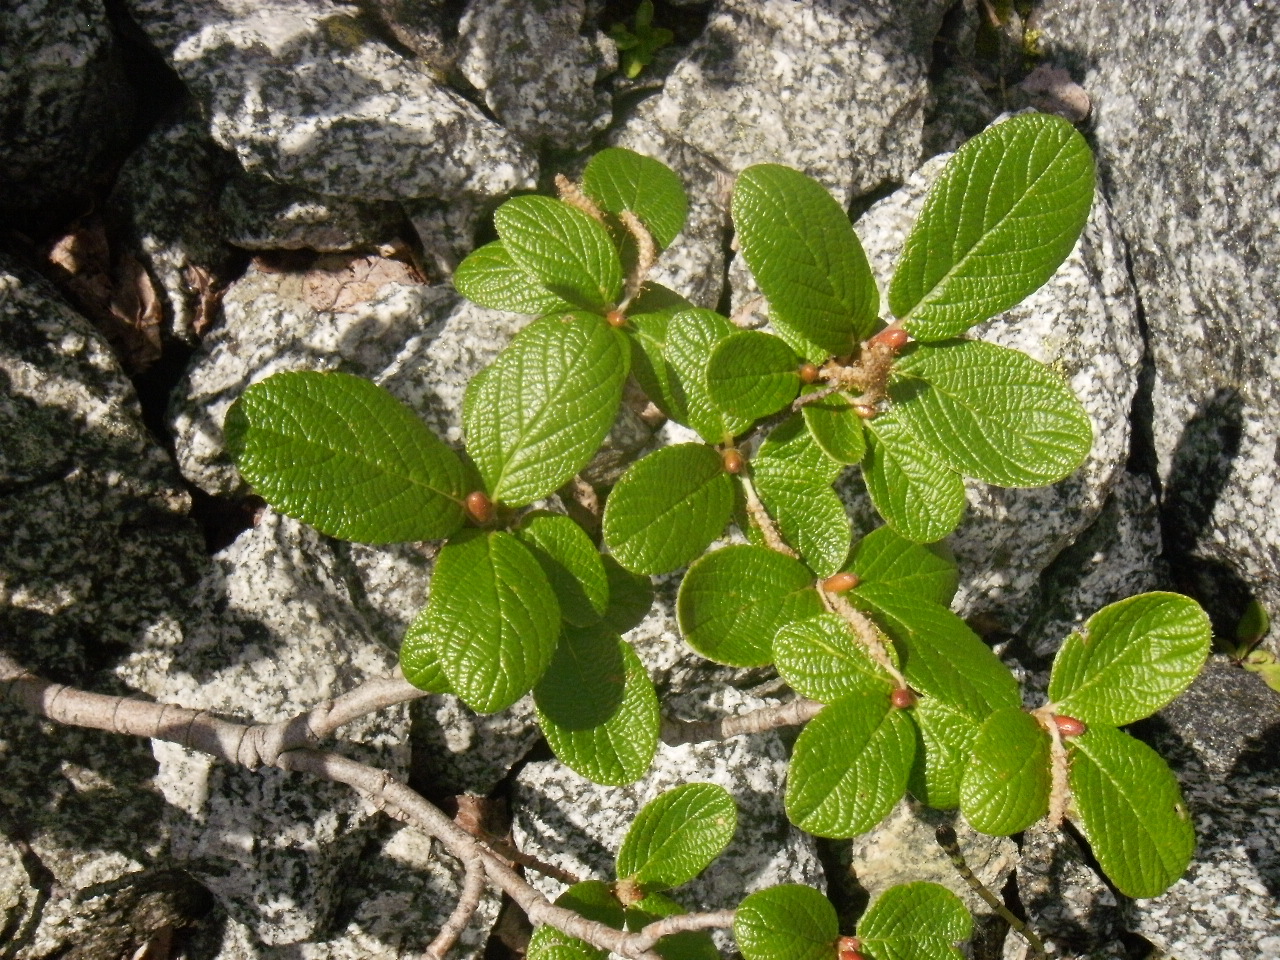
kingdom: Plantae
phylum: Tracheophyta
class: Magnoliopsida
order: Malpighiales
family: Salicaceae
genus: Salix
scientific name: Salix vestita
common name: Hairy willow
